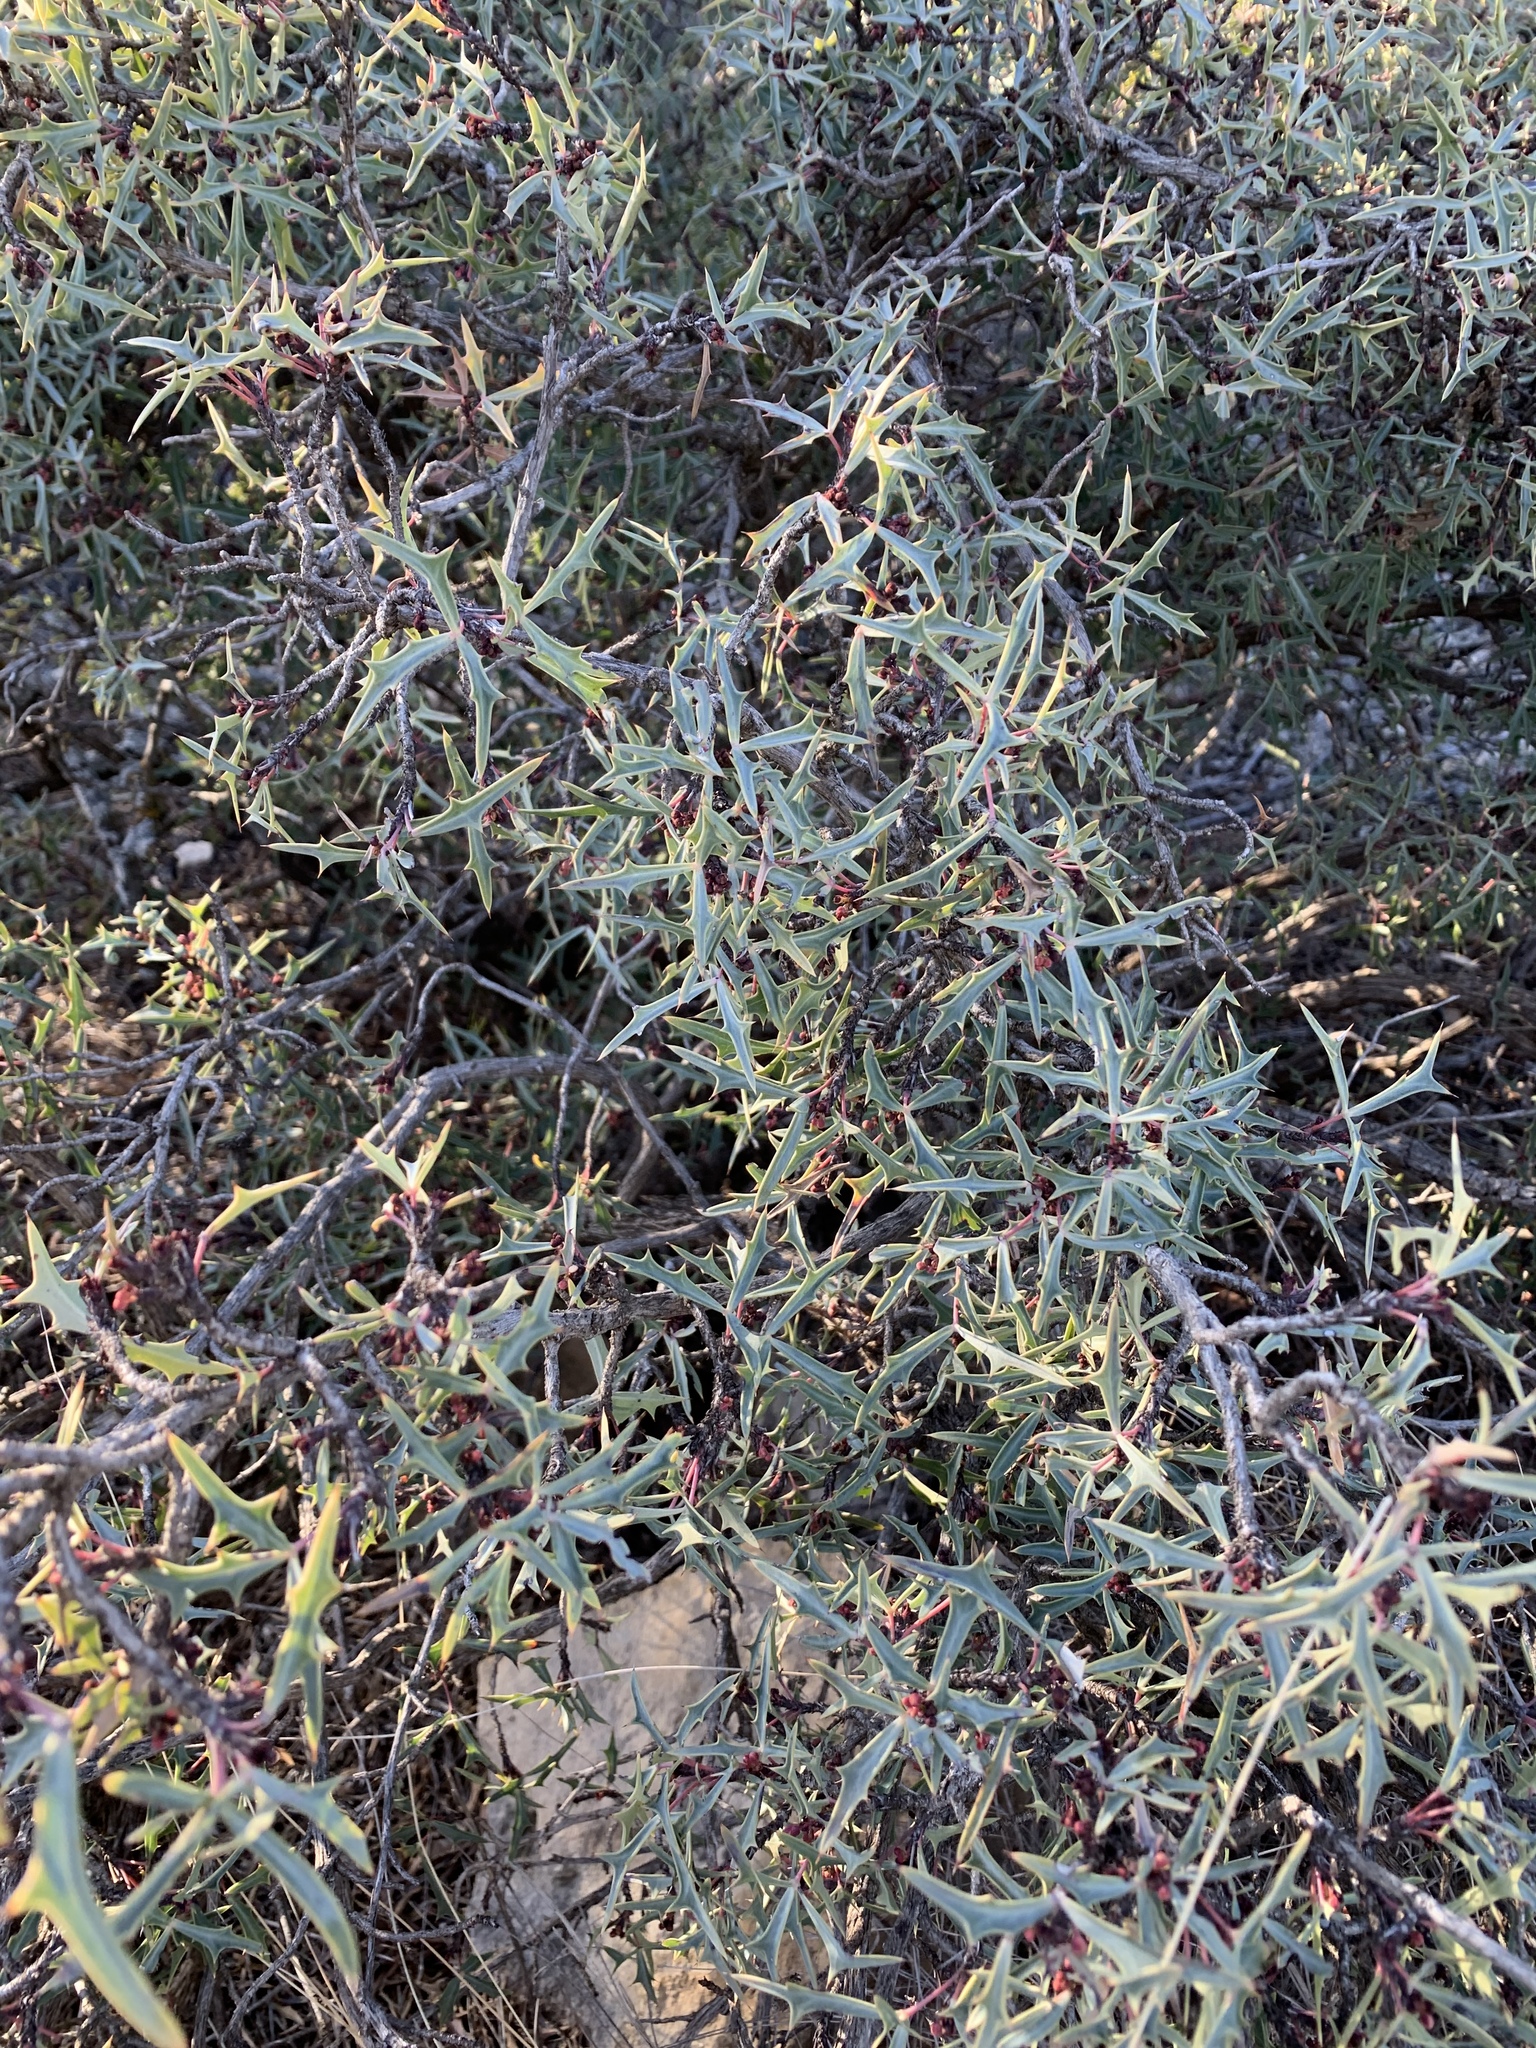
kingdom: Plantae
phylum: Tracheophyta
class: Magnoliopsida
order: Ranunculales
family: Berberidaceae
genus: Alloberberis
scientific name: Alloberberis trifoliolata
